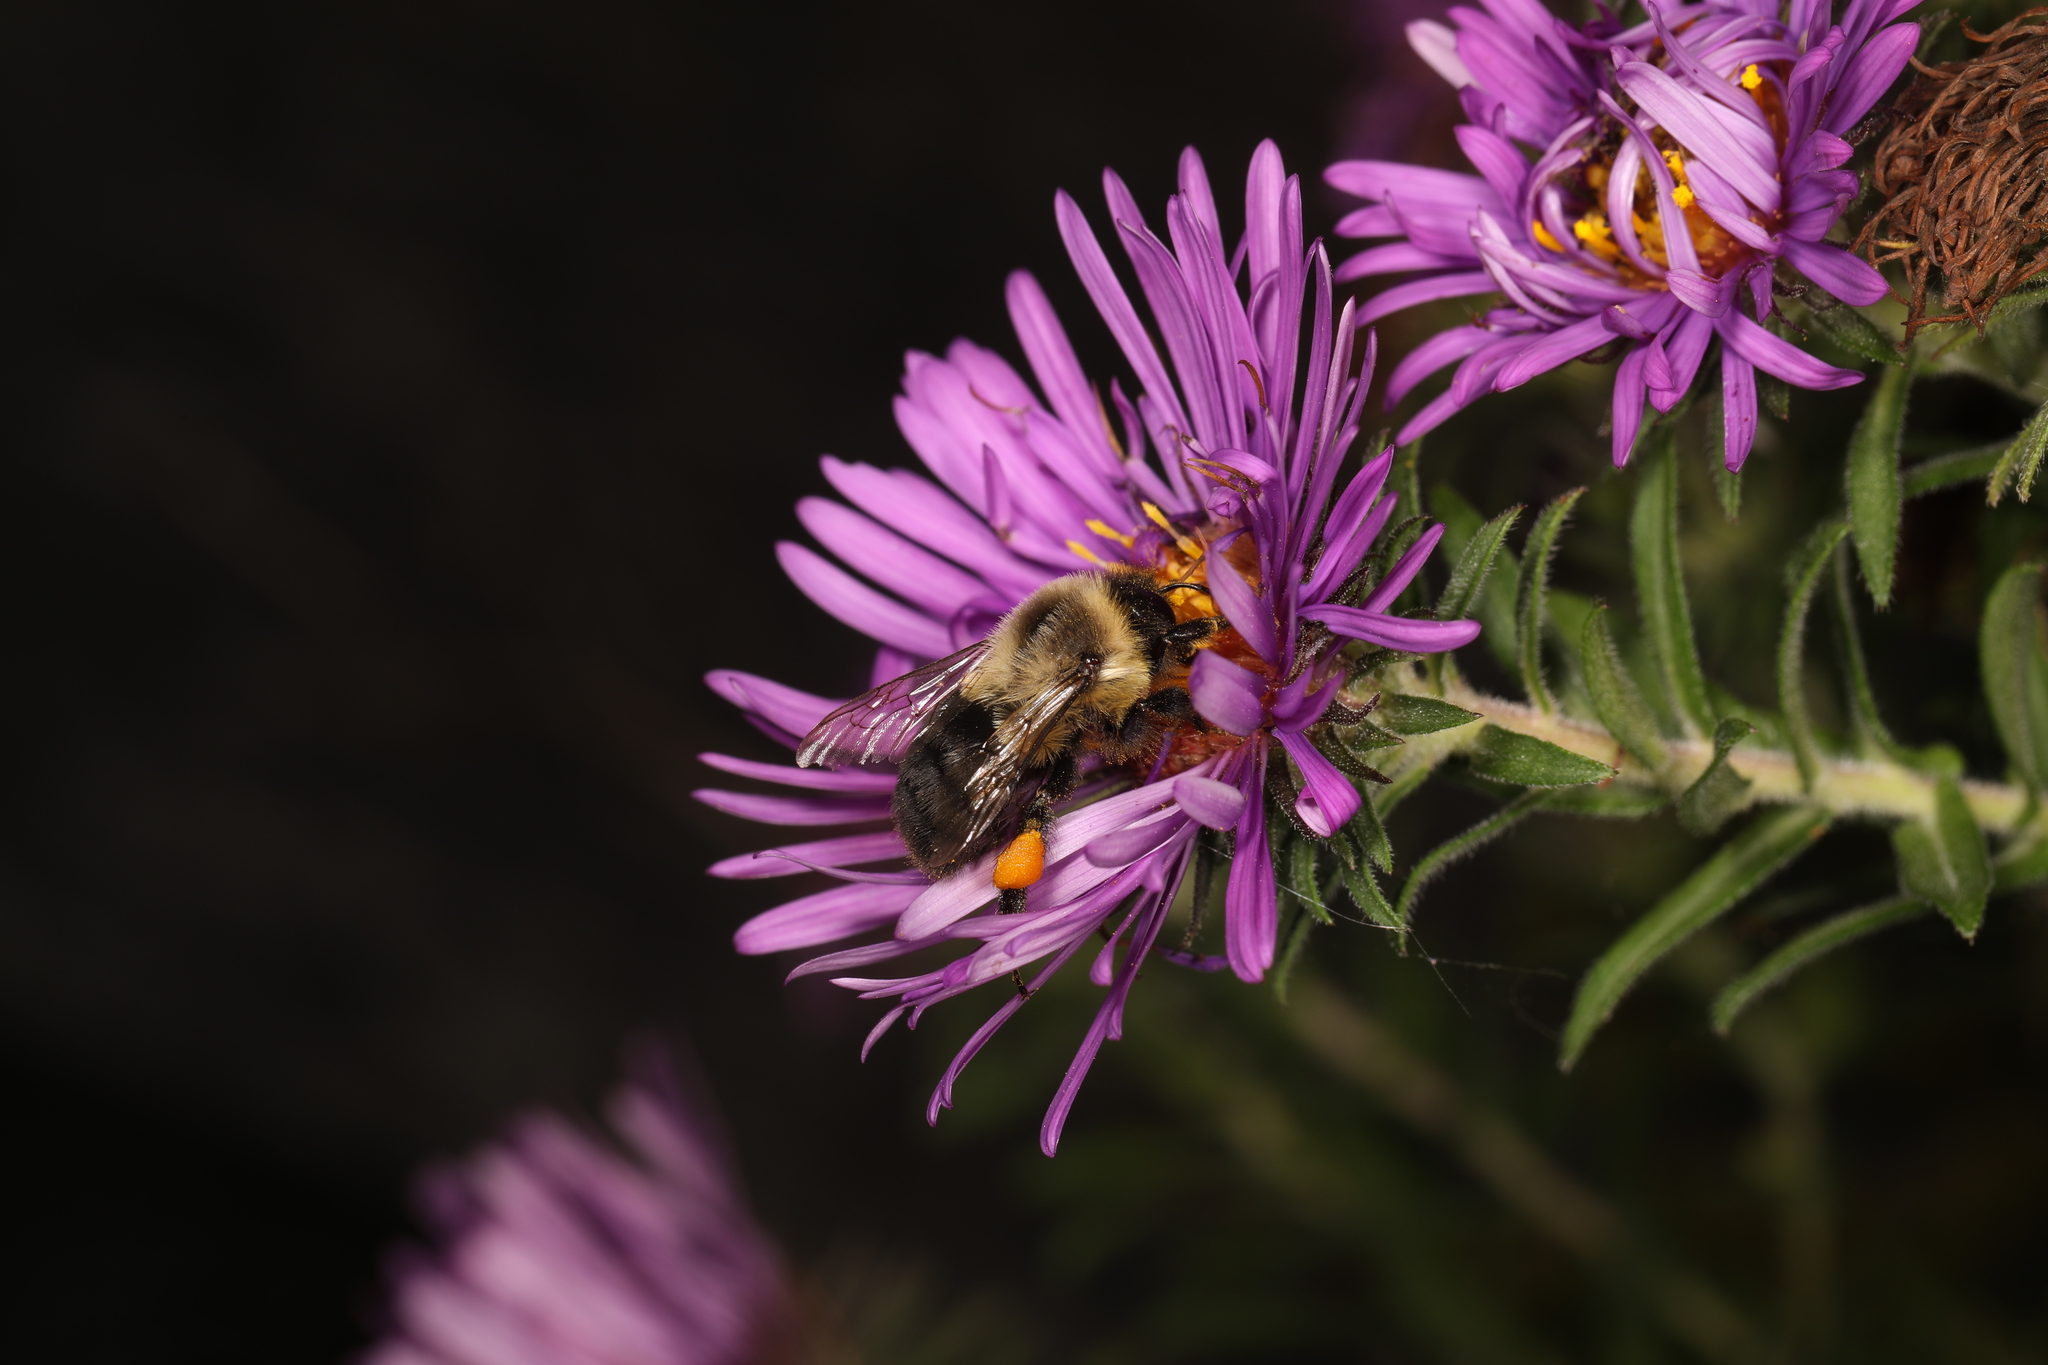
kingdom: Animalia
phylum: Arthropoda
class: Insecta
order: Hymenoptera
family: Apidae
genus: Bombus
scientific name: Bombus impatiens
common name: Common eastern bumble bee
